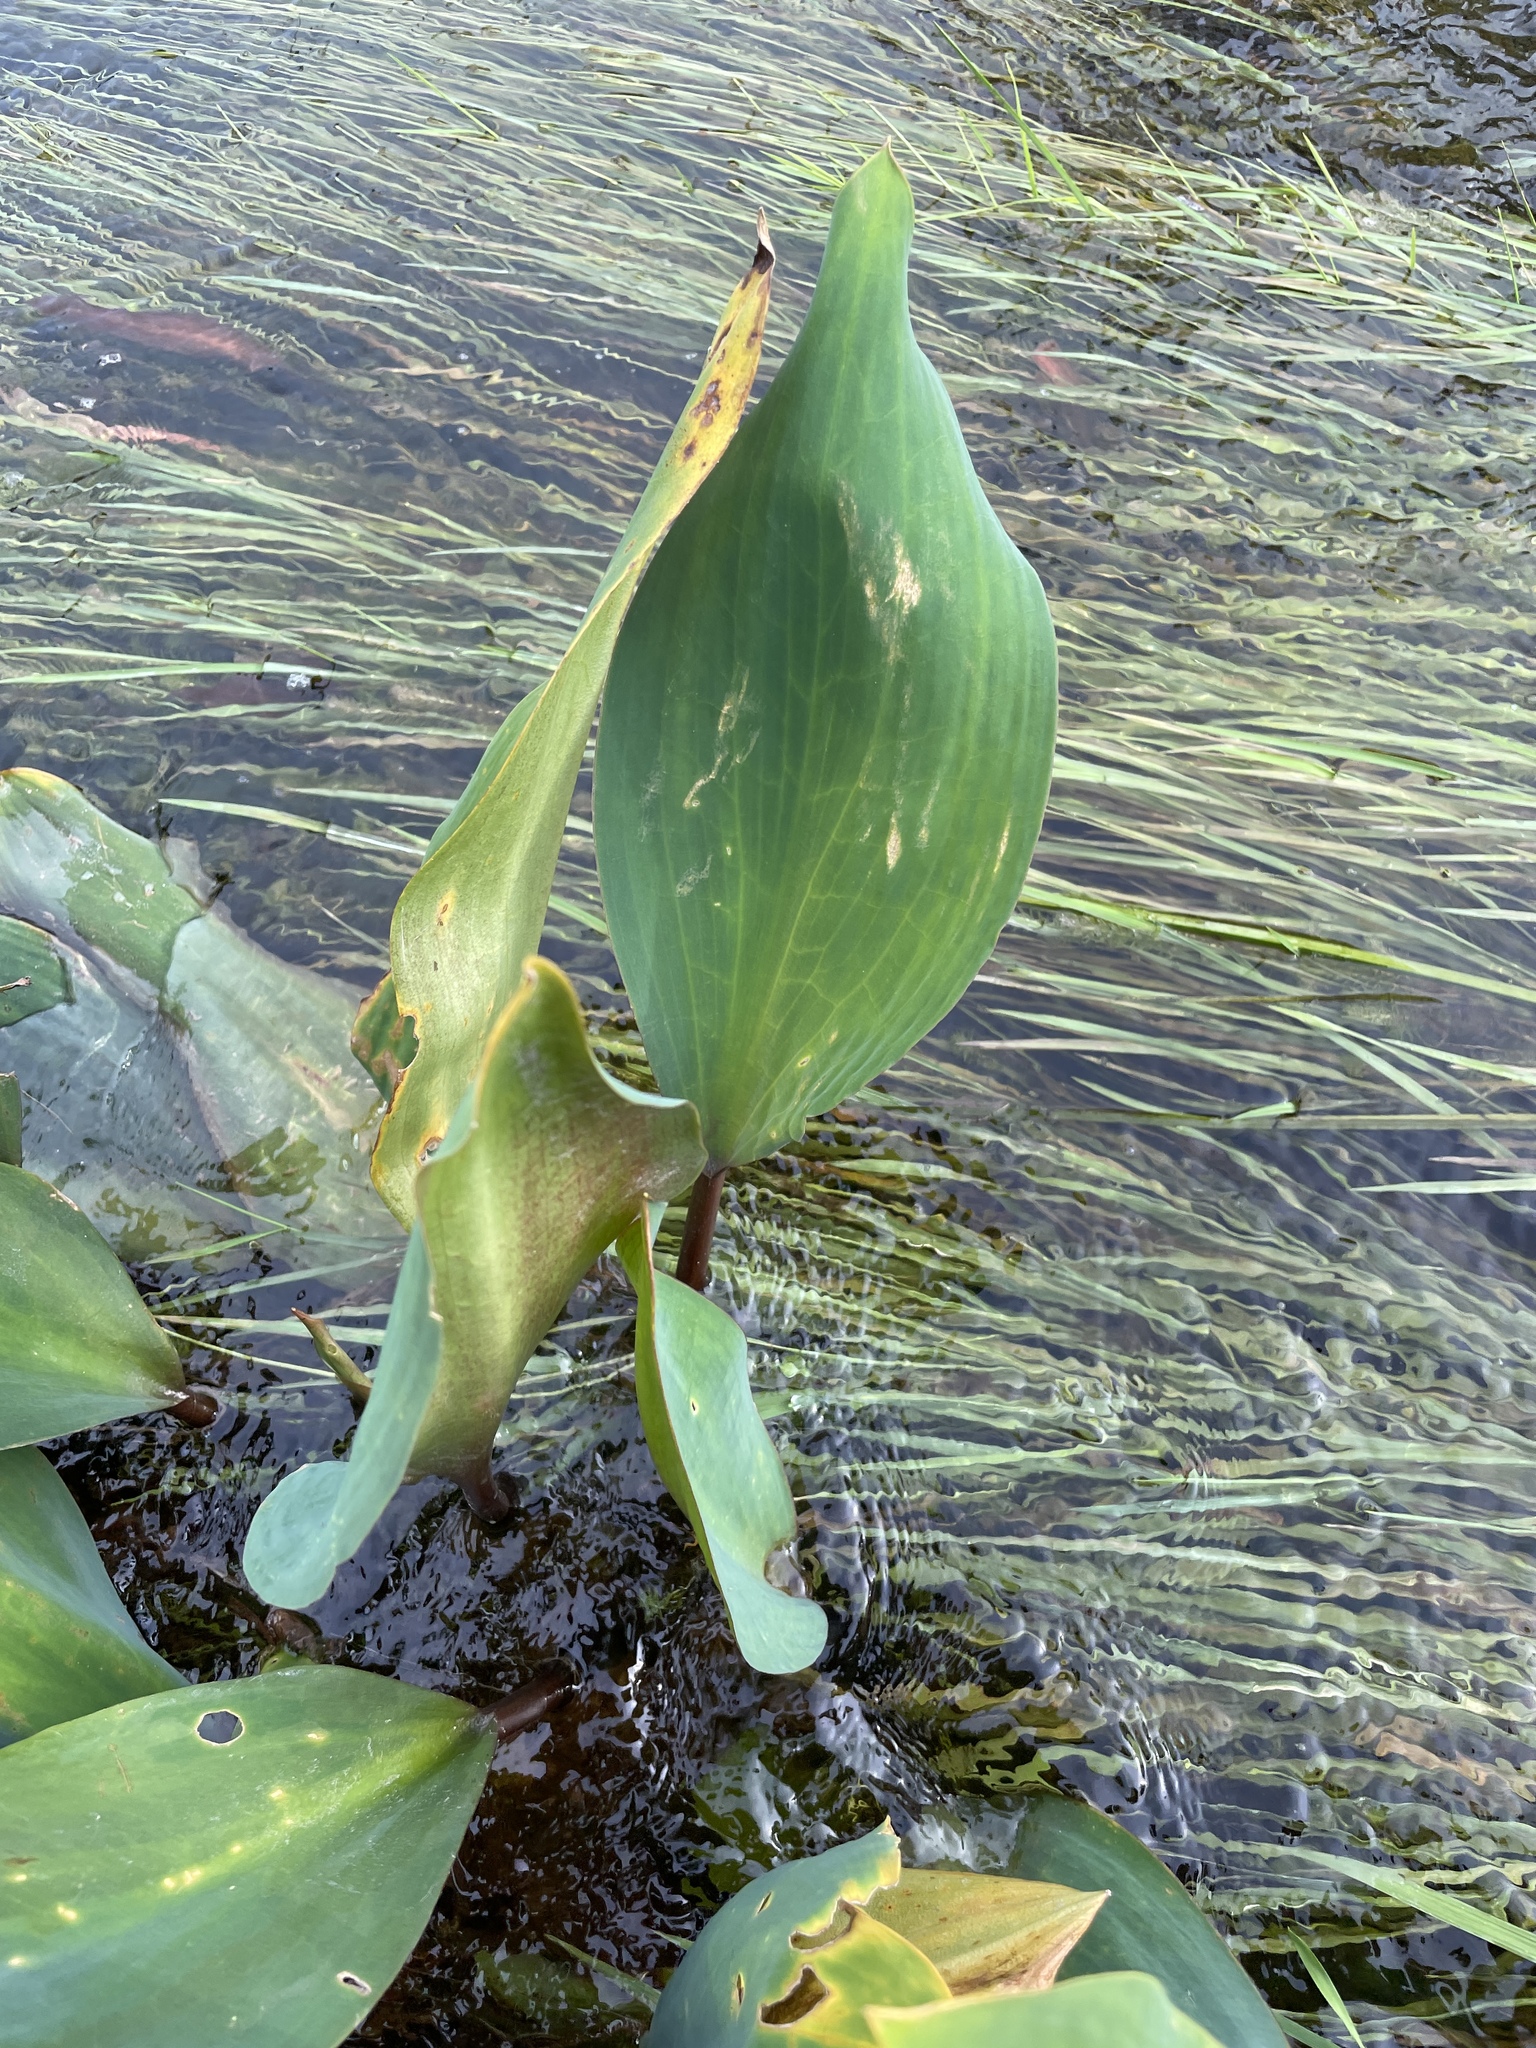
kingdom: Plantae
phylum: Tracheophyta
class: Liliopsida
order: Alismatales
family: Araceae
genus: Orontium
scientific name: Orontium aquaticum
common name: Golden-club
